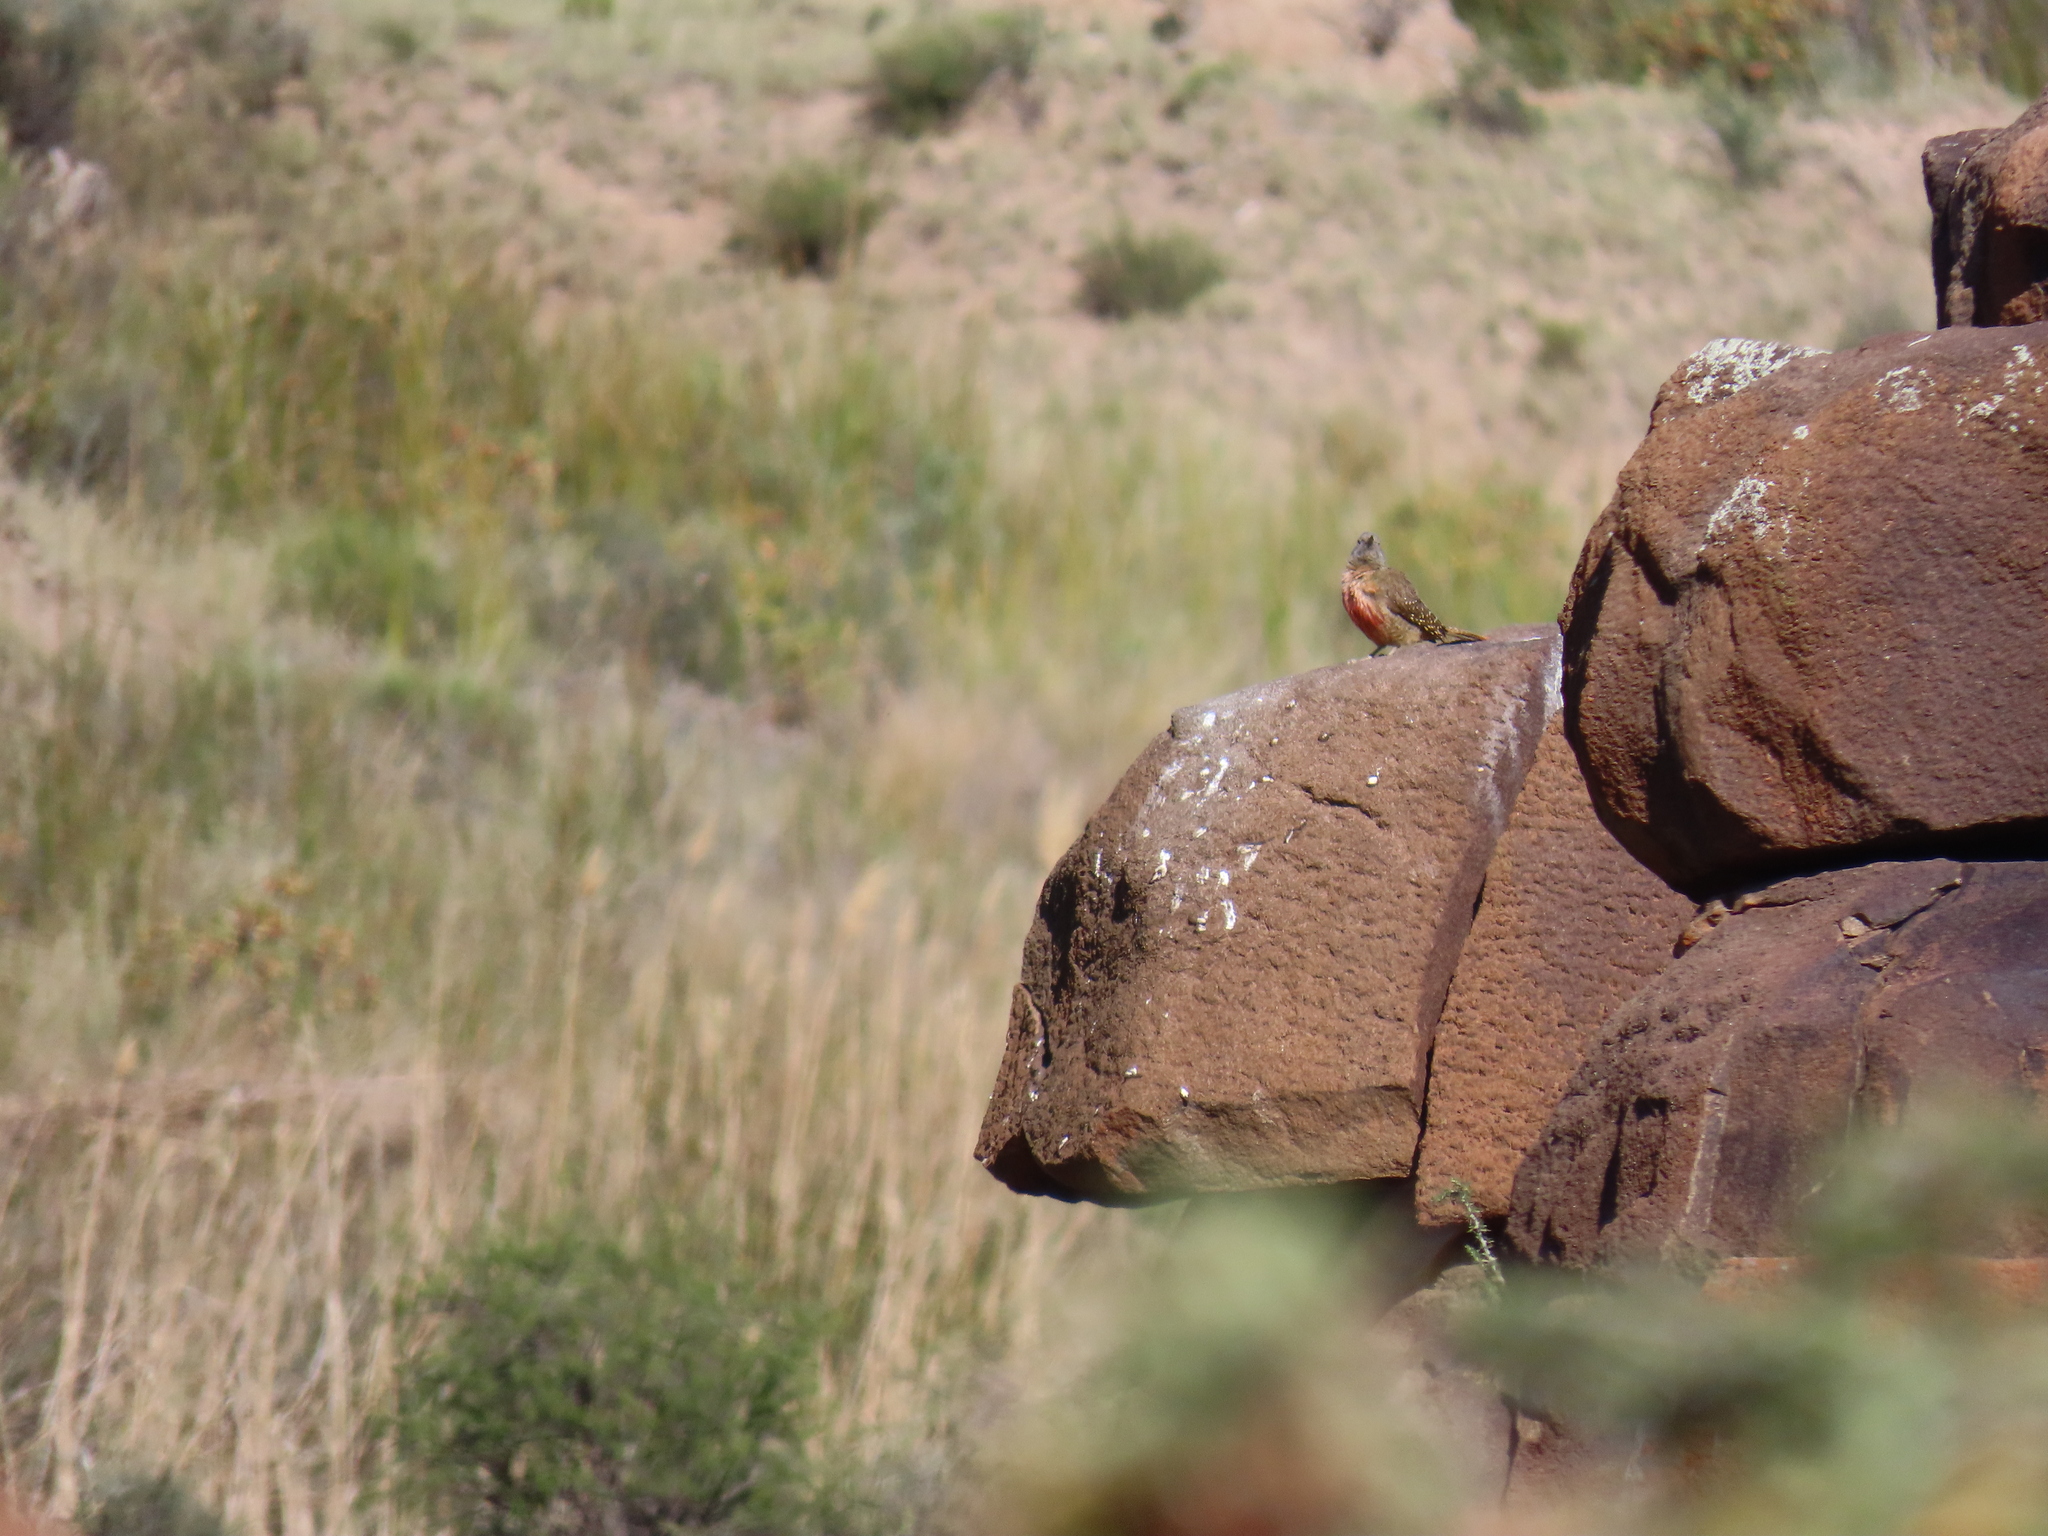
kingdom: Animalia
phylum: Chordata
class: Aves
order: Piciformes
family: Picidae
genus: Geocolaptes
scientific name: Geocolaptes olivaceus
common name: Ground woodpecker
